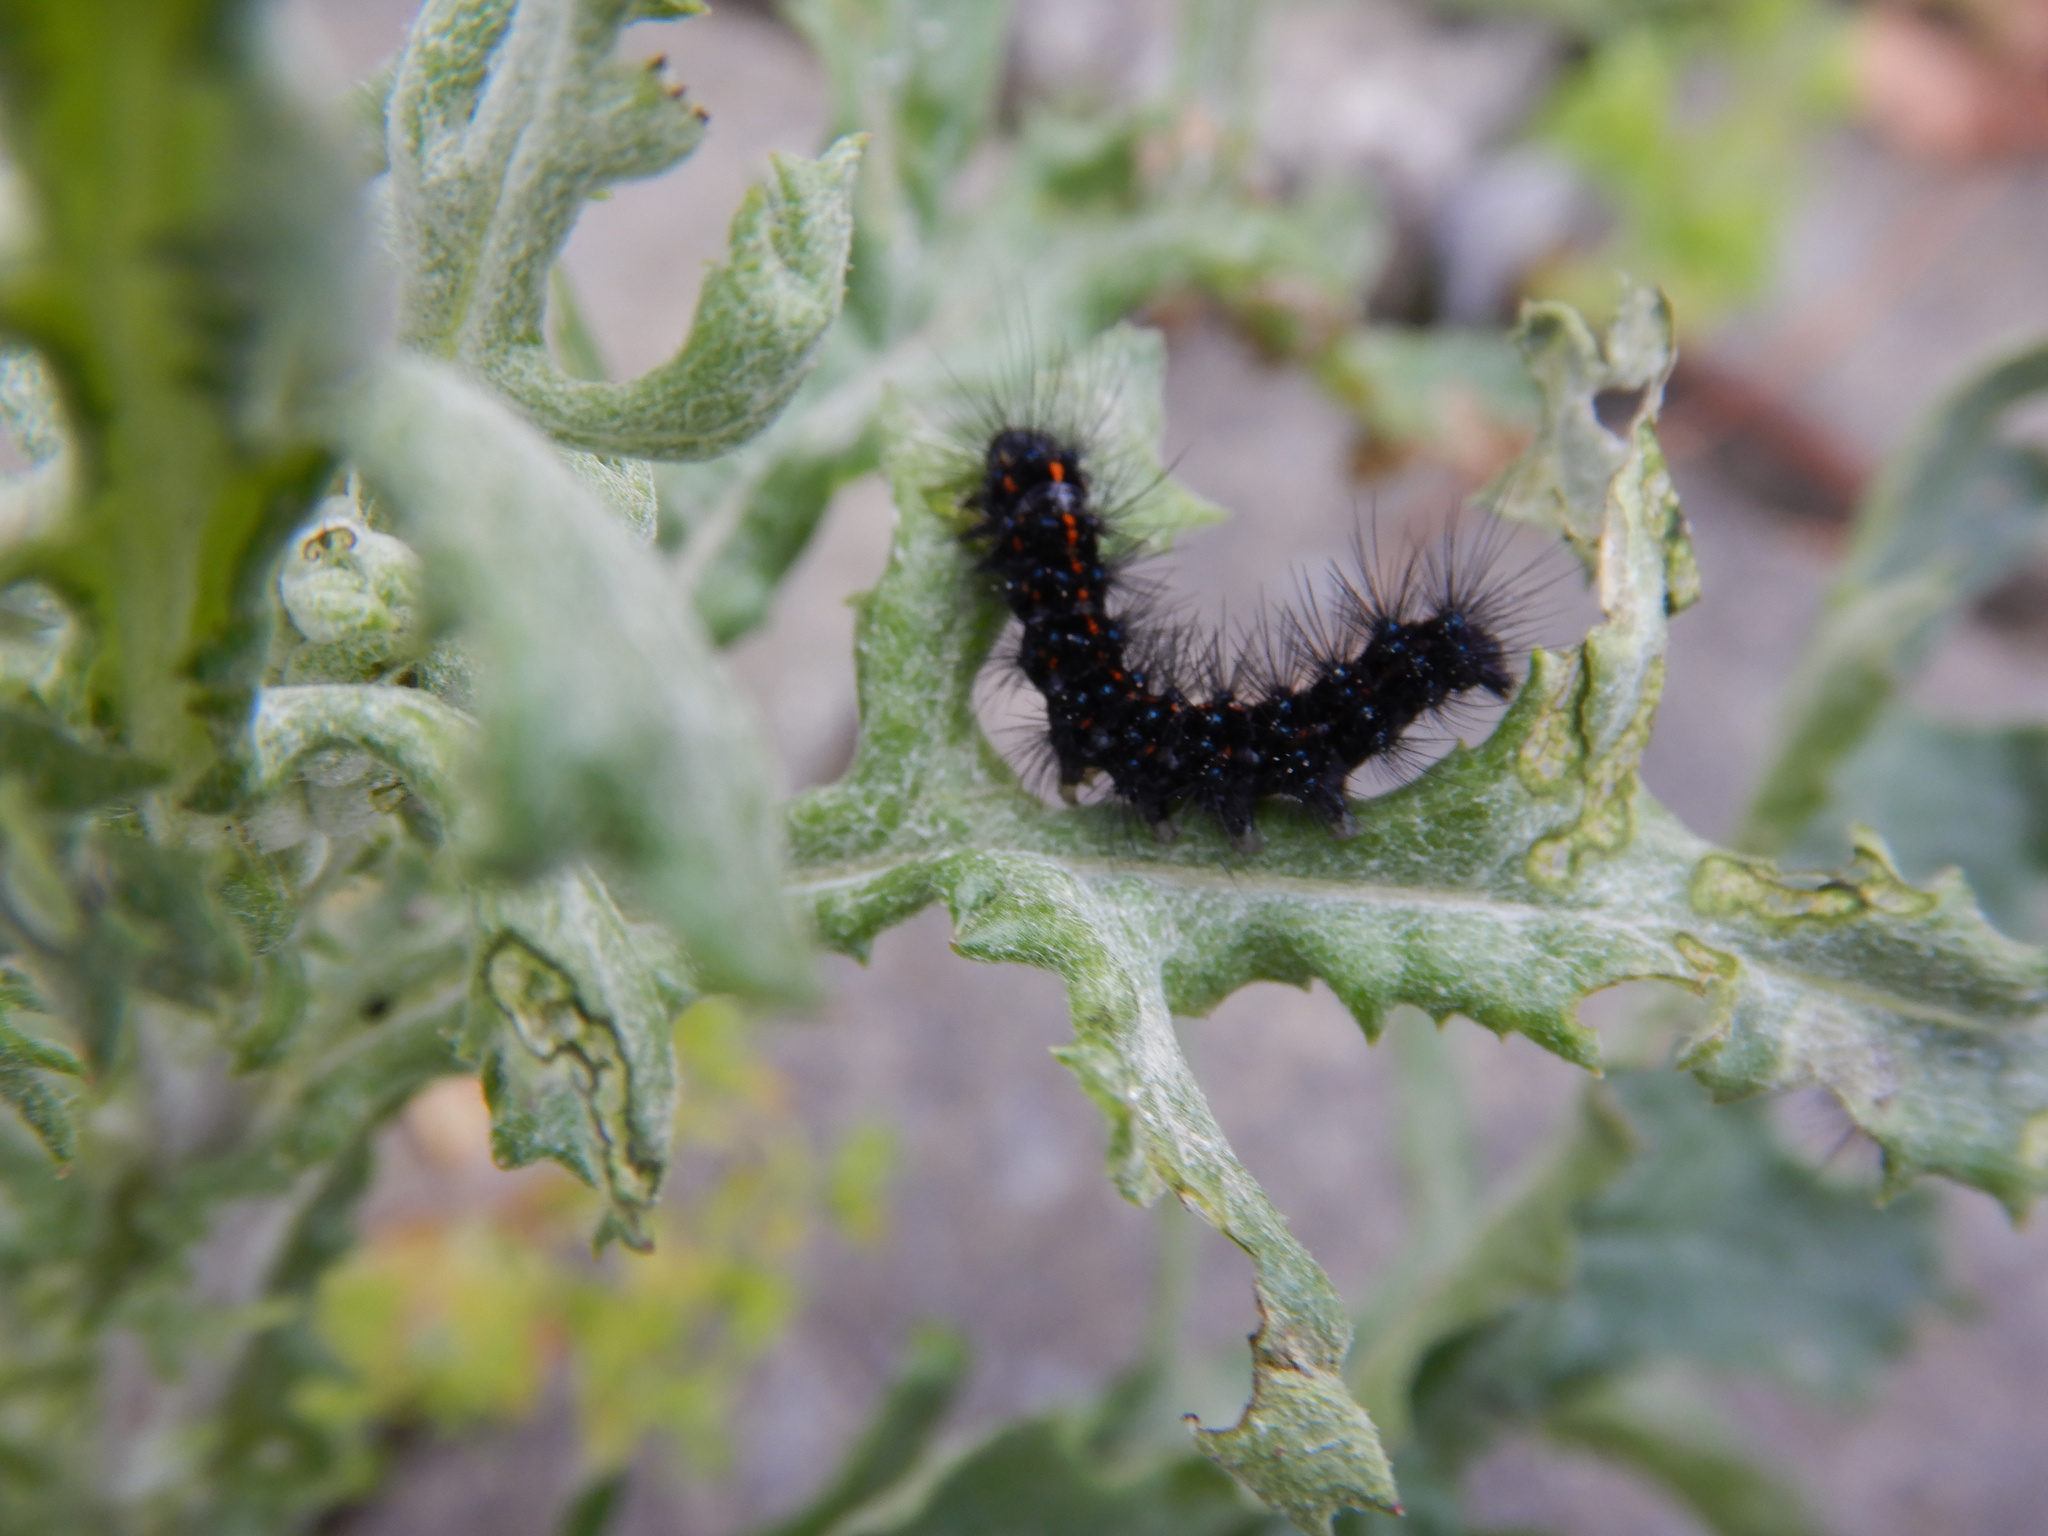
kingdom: Animalia
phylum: Arthropoda
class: Insecta
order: Lepidoptera
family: Erebidae
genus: Nyctemera
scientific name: Nyctemera annulatum
